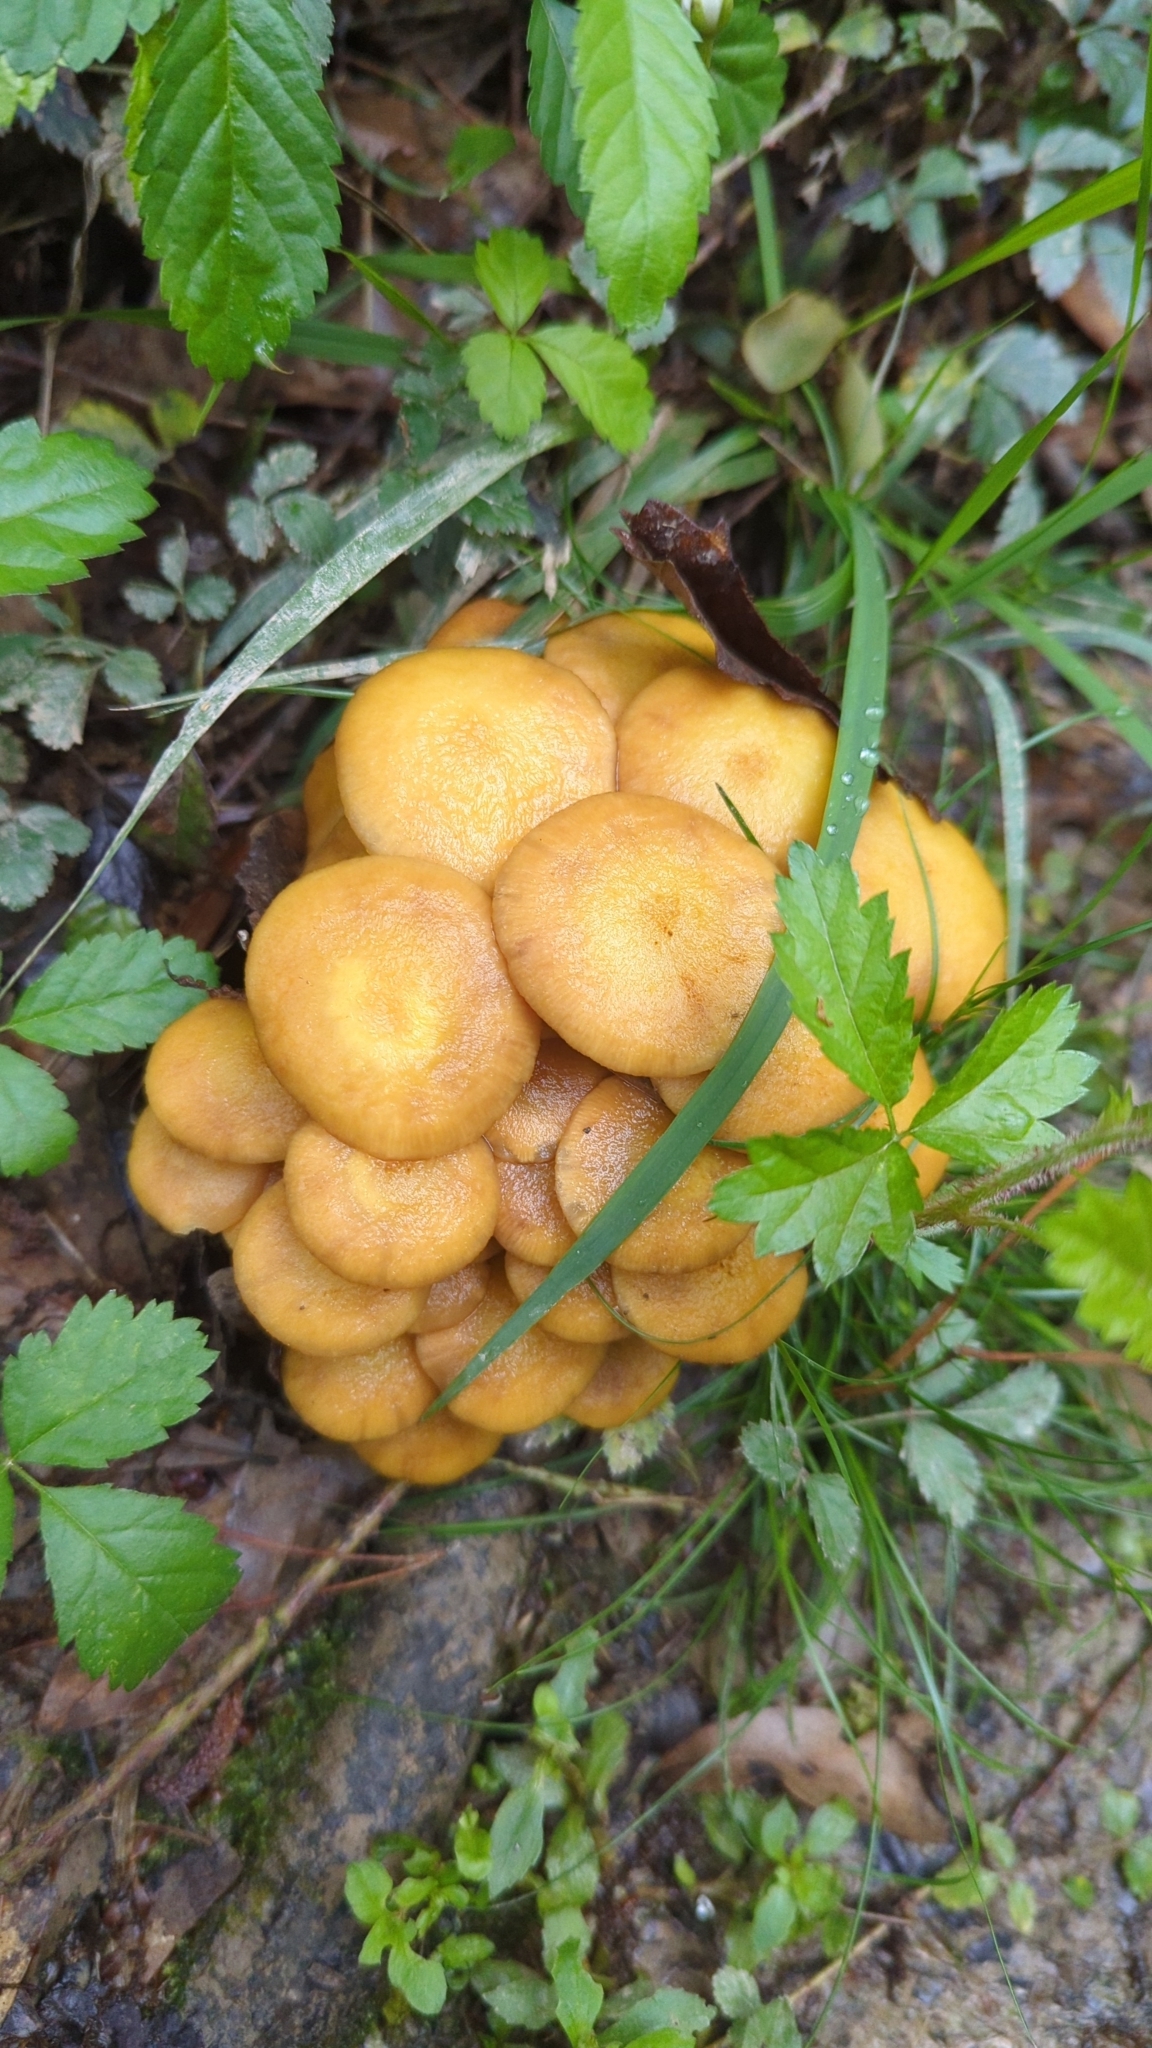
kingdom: Fungi
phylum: Basidiomycota
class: Agaricomycetes
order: Agaricales
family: Physalacriaceae
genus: Desarmillaria
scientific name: Desarmillaria caespitosa
